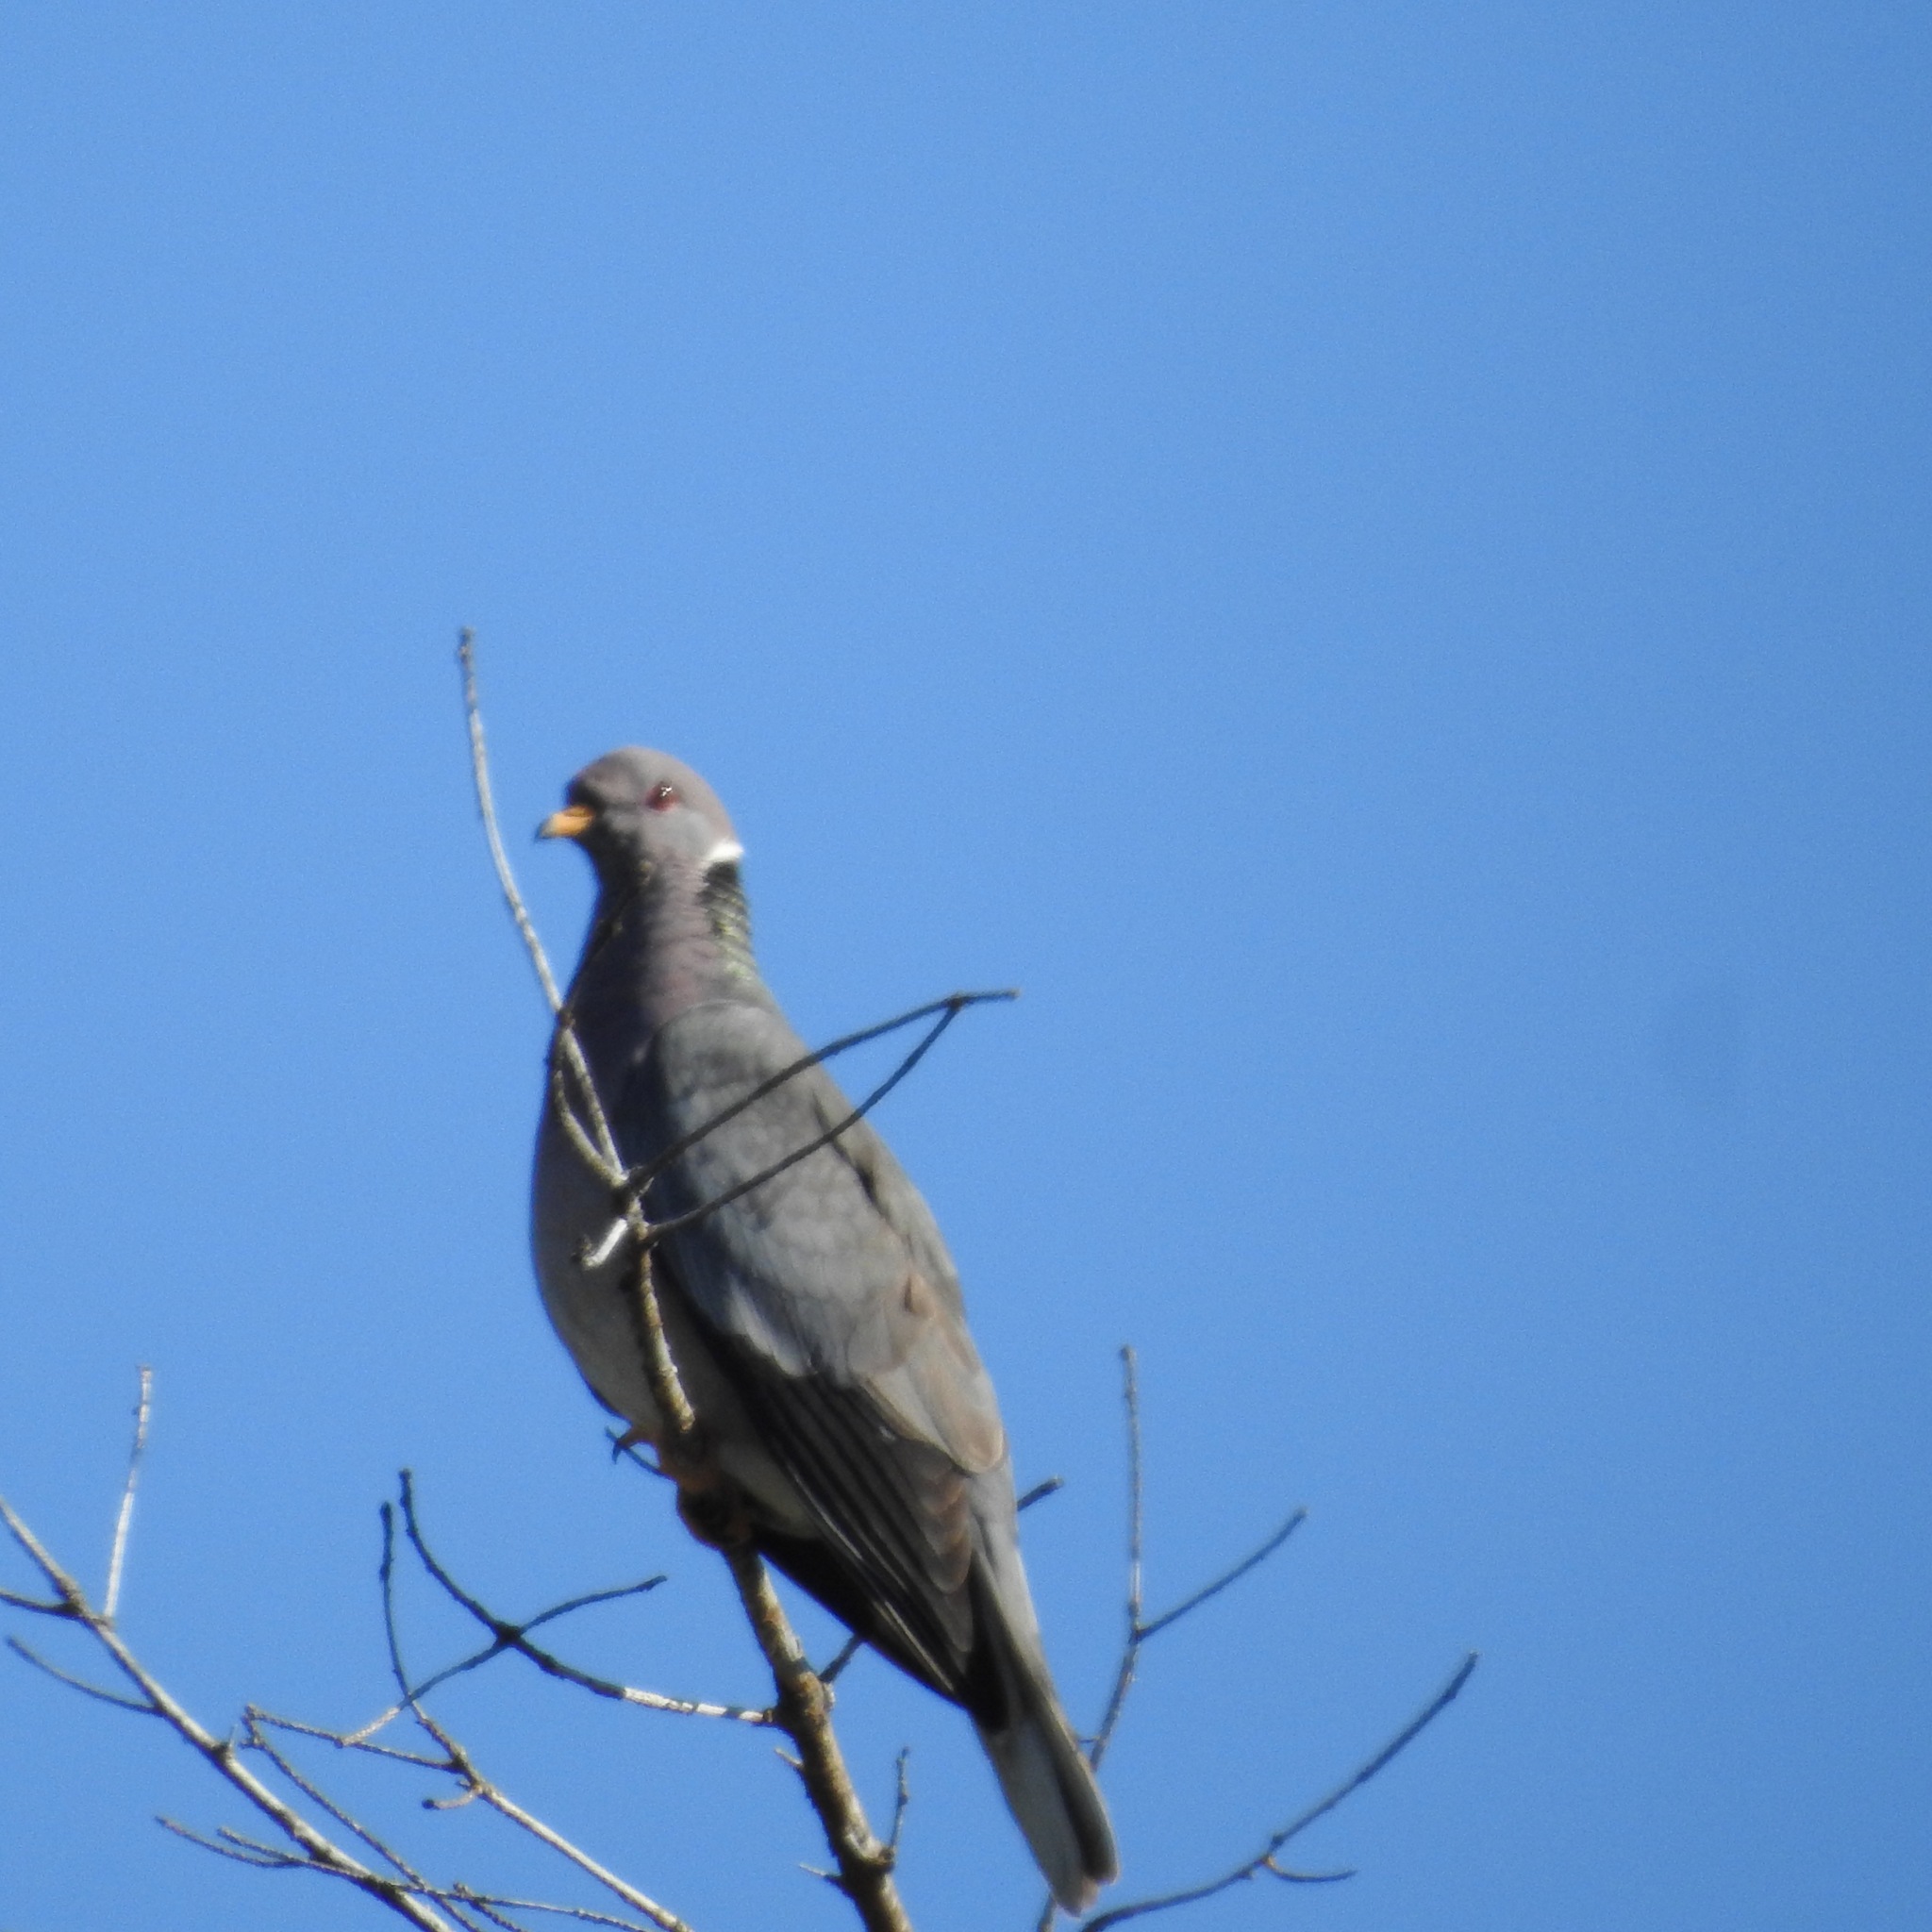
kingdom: Animalia
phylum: Chordata
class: Aves
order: Columbiformes
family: Columbidae
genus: Patagioenas
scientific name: Patagioenas fasciata
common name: Band-tailed pigeon
